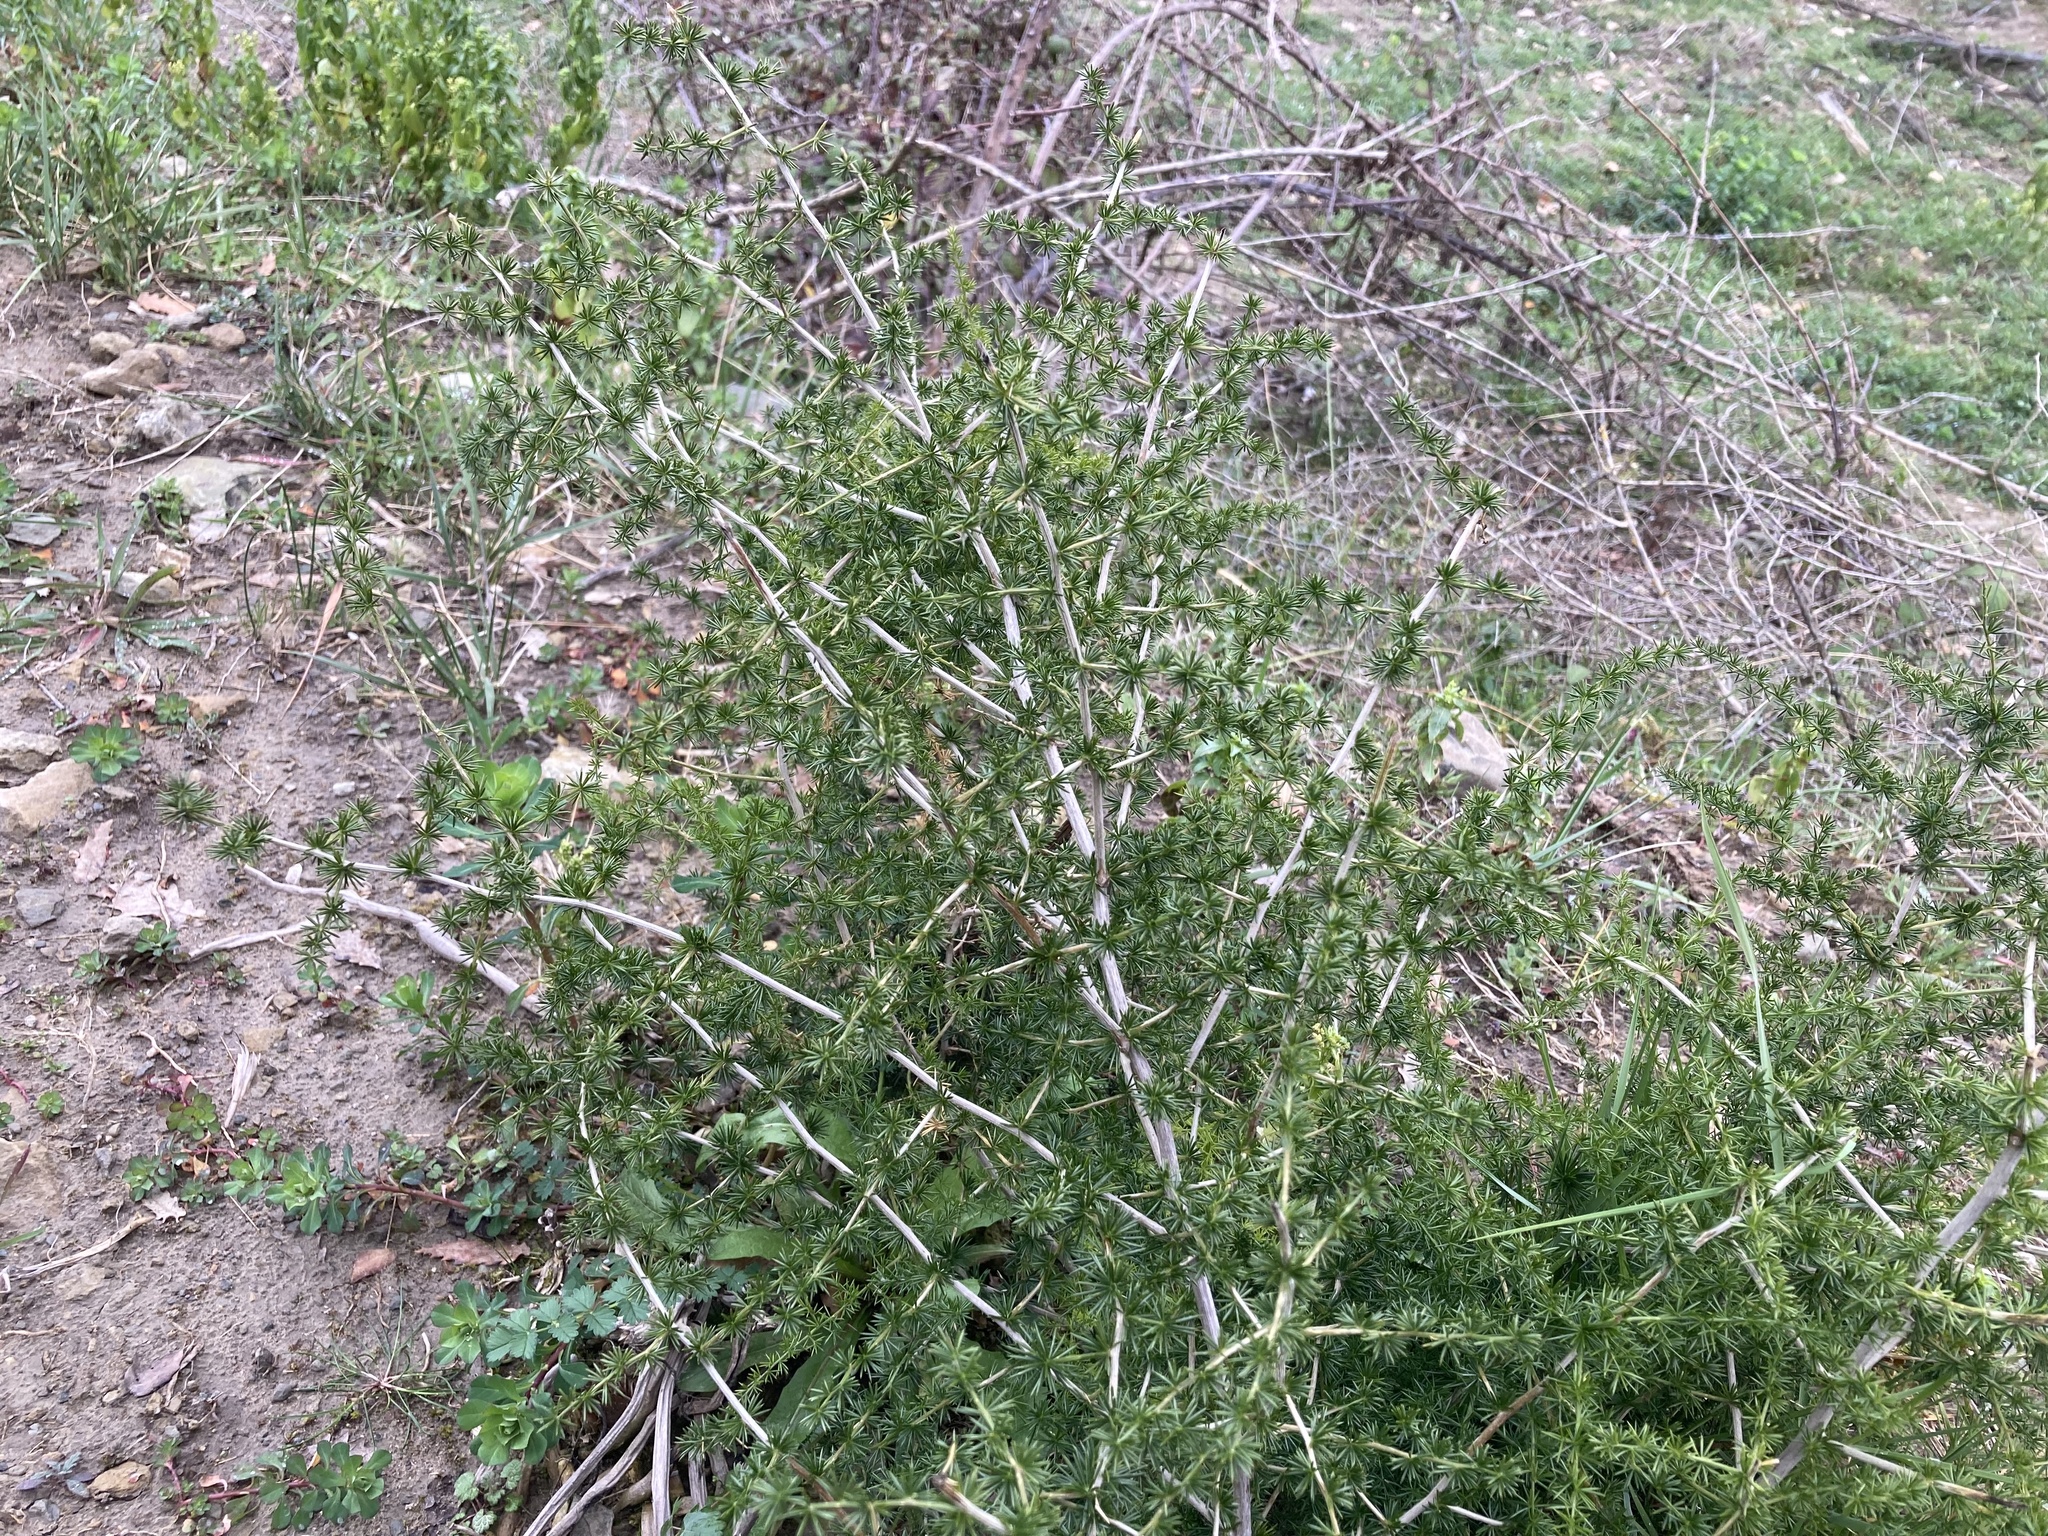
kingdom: Plantae
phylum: Tracheophyta
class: Liliopsida
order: Asparagales
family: Asparagaceae
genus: Asparagus
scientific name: Asparagus acutifolius
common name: Wild asparagus
